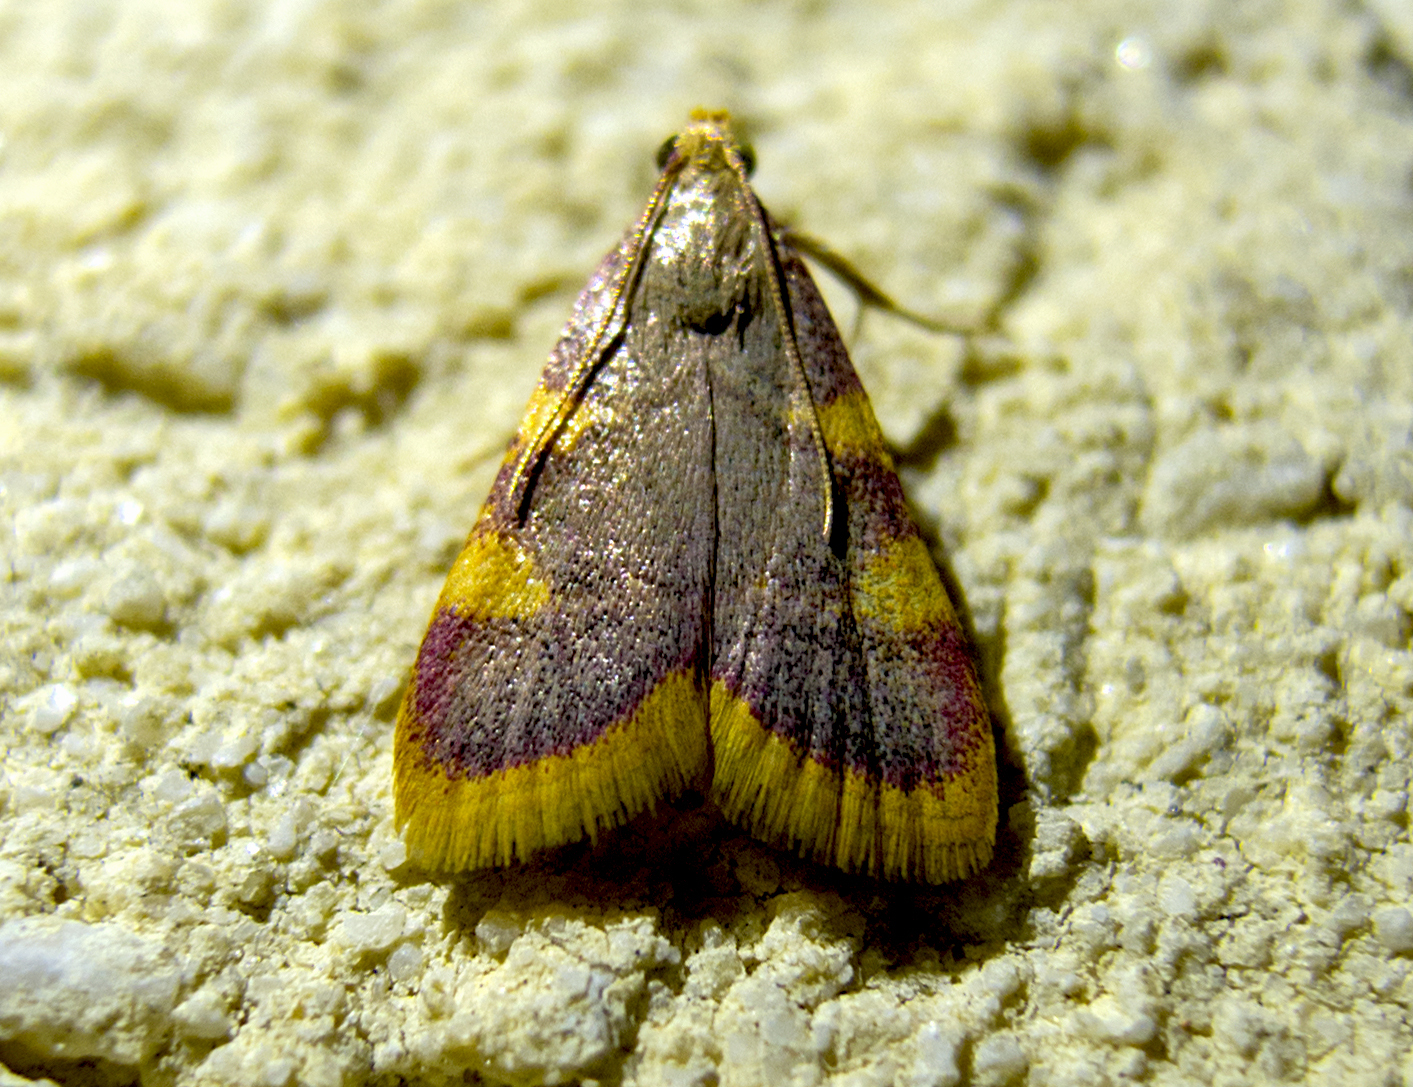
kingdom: Animalia
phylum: Arthropoda
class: Insecta
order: Lepidoptera
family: Pyralidae
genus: Hypsopygia
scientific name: Hypsopygia costalis
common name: Gold triangle
